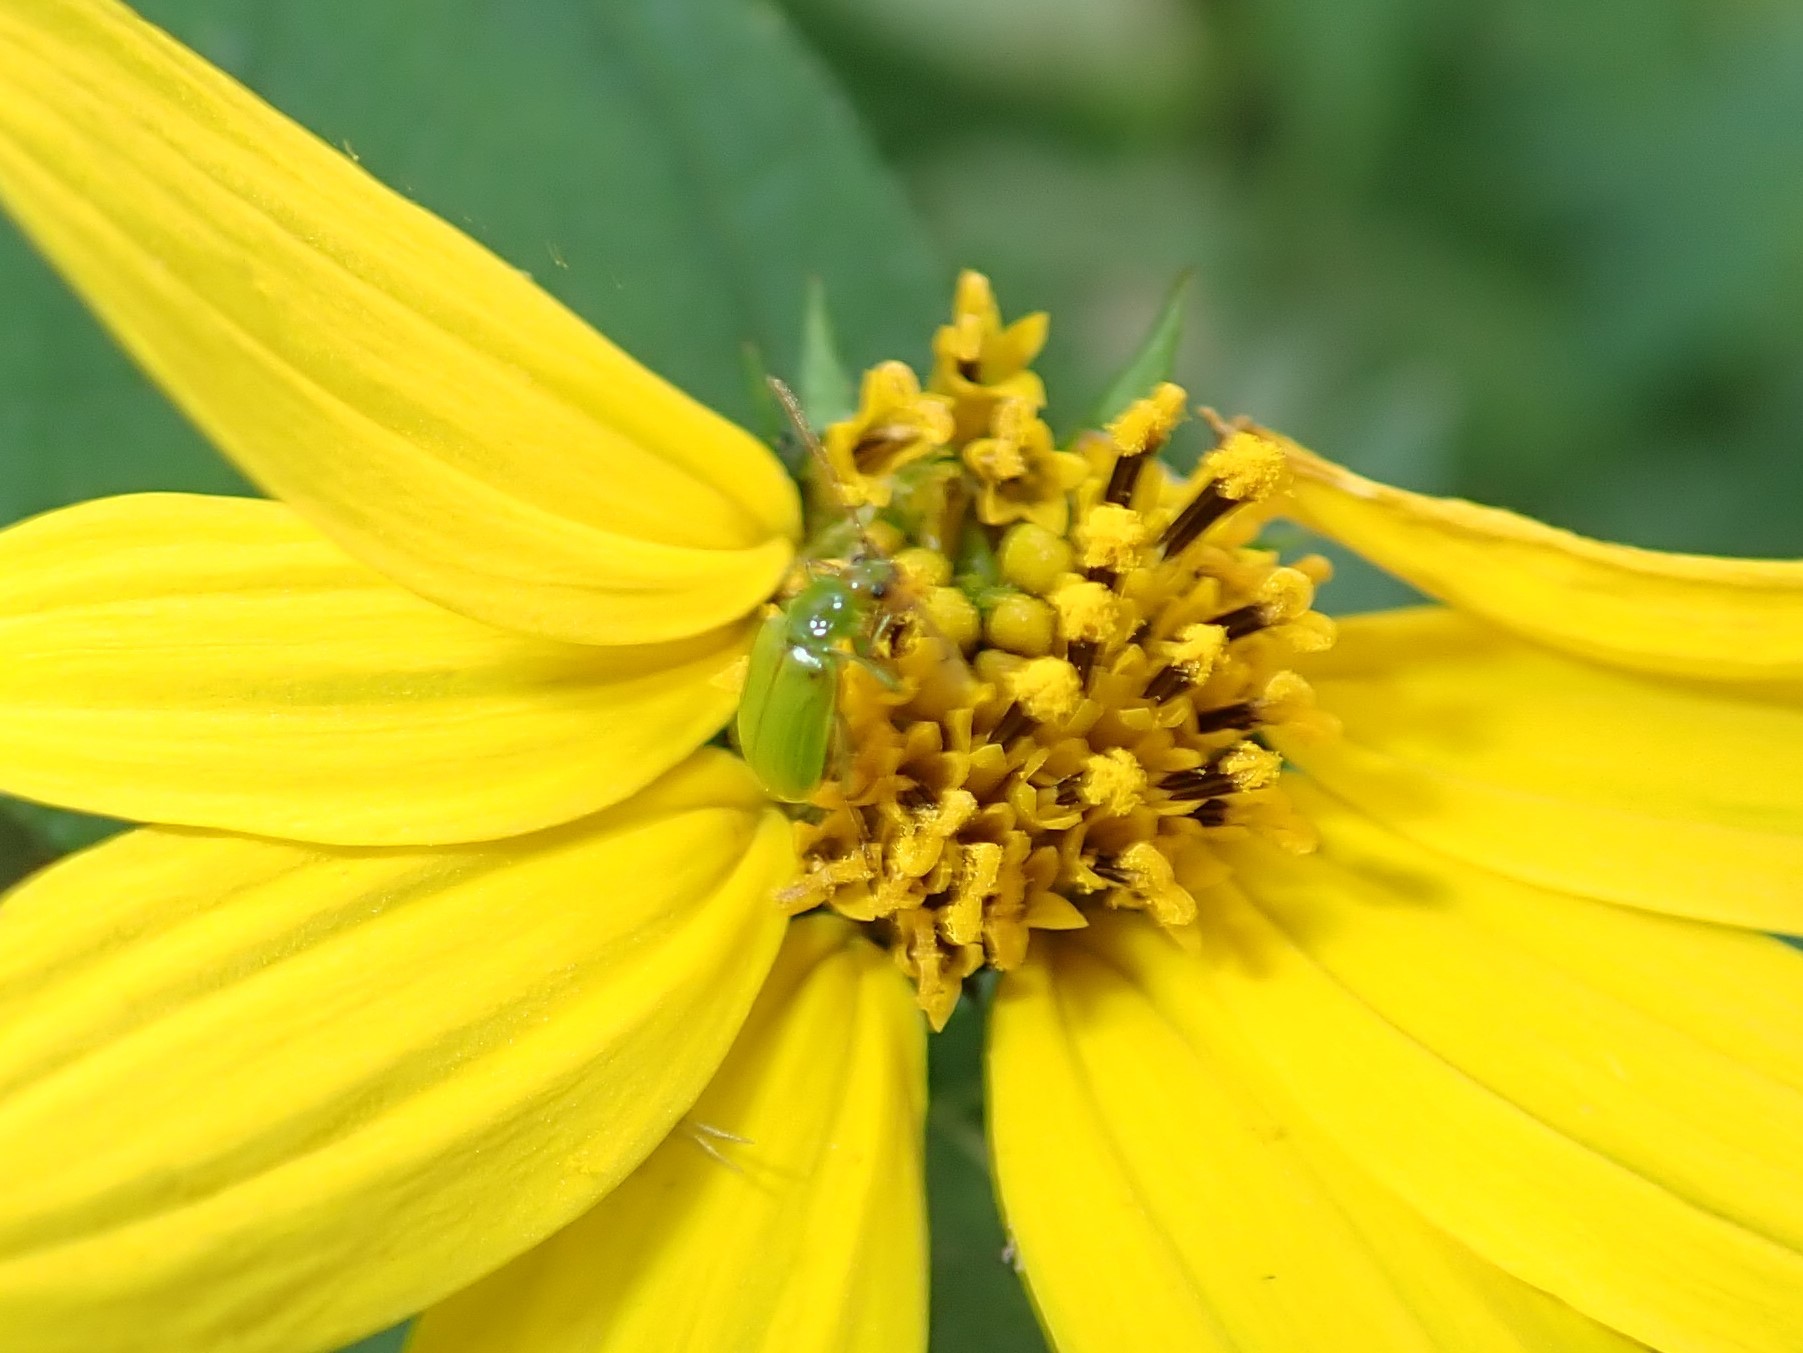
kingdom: Animalia
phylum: Arthropoda
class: Insecta
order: Coleoptera
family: Chrysomelidae
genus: Diabrotica
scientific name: Diabrotica barberi
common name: Northern corn rootworm
